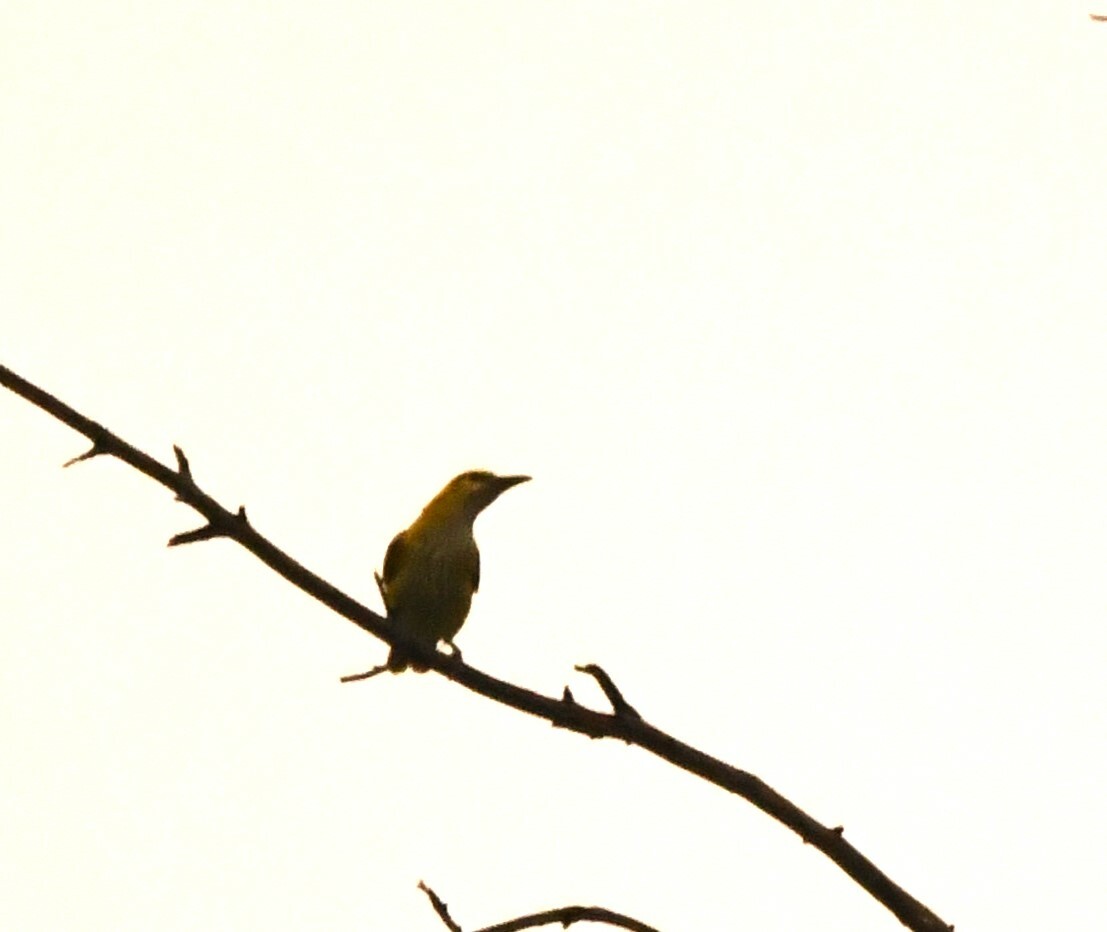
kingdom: Animalia
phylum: Chordata
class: Aves
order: Passeriformes
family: Oriolidae
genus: Oriolus
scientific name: Oriolus kundoo
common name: Indian golden oriole
